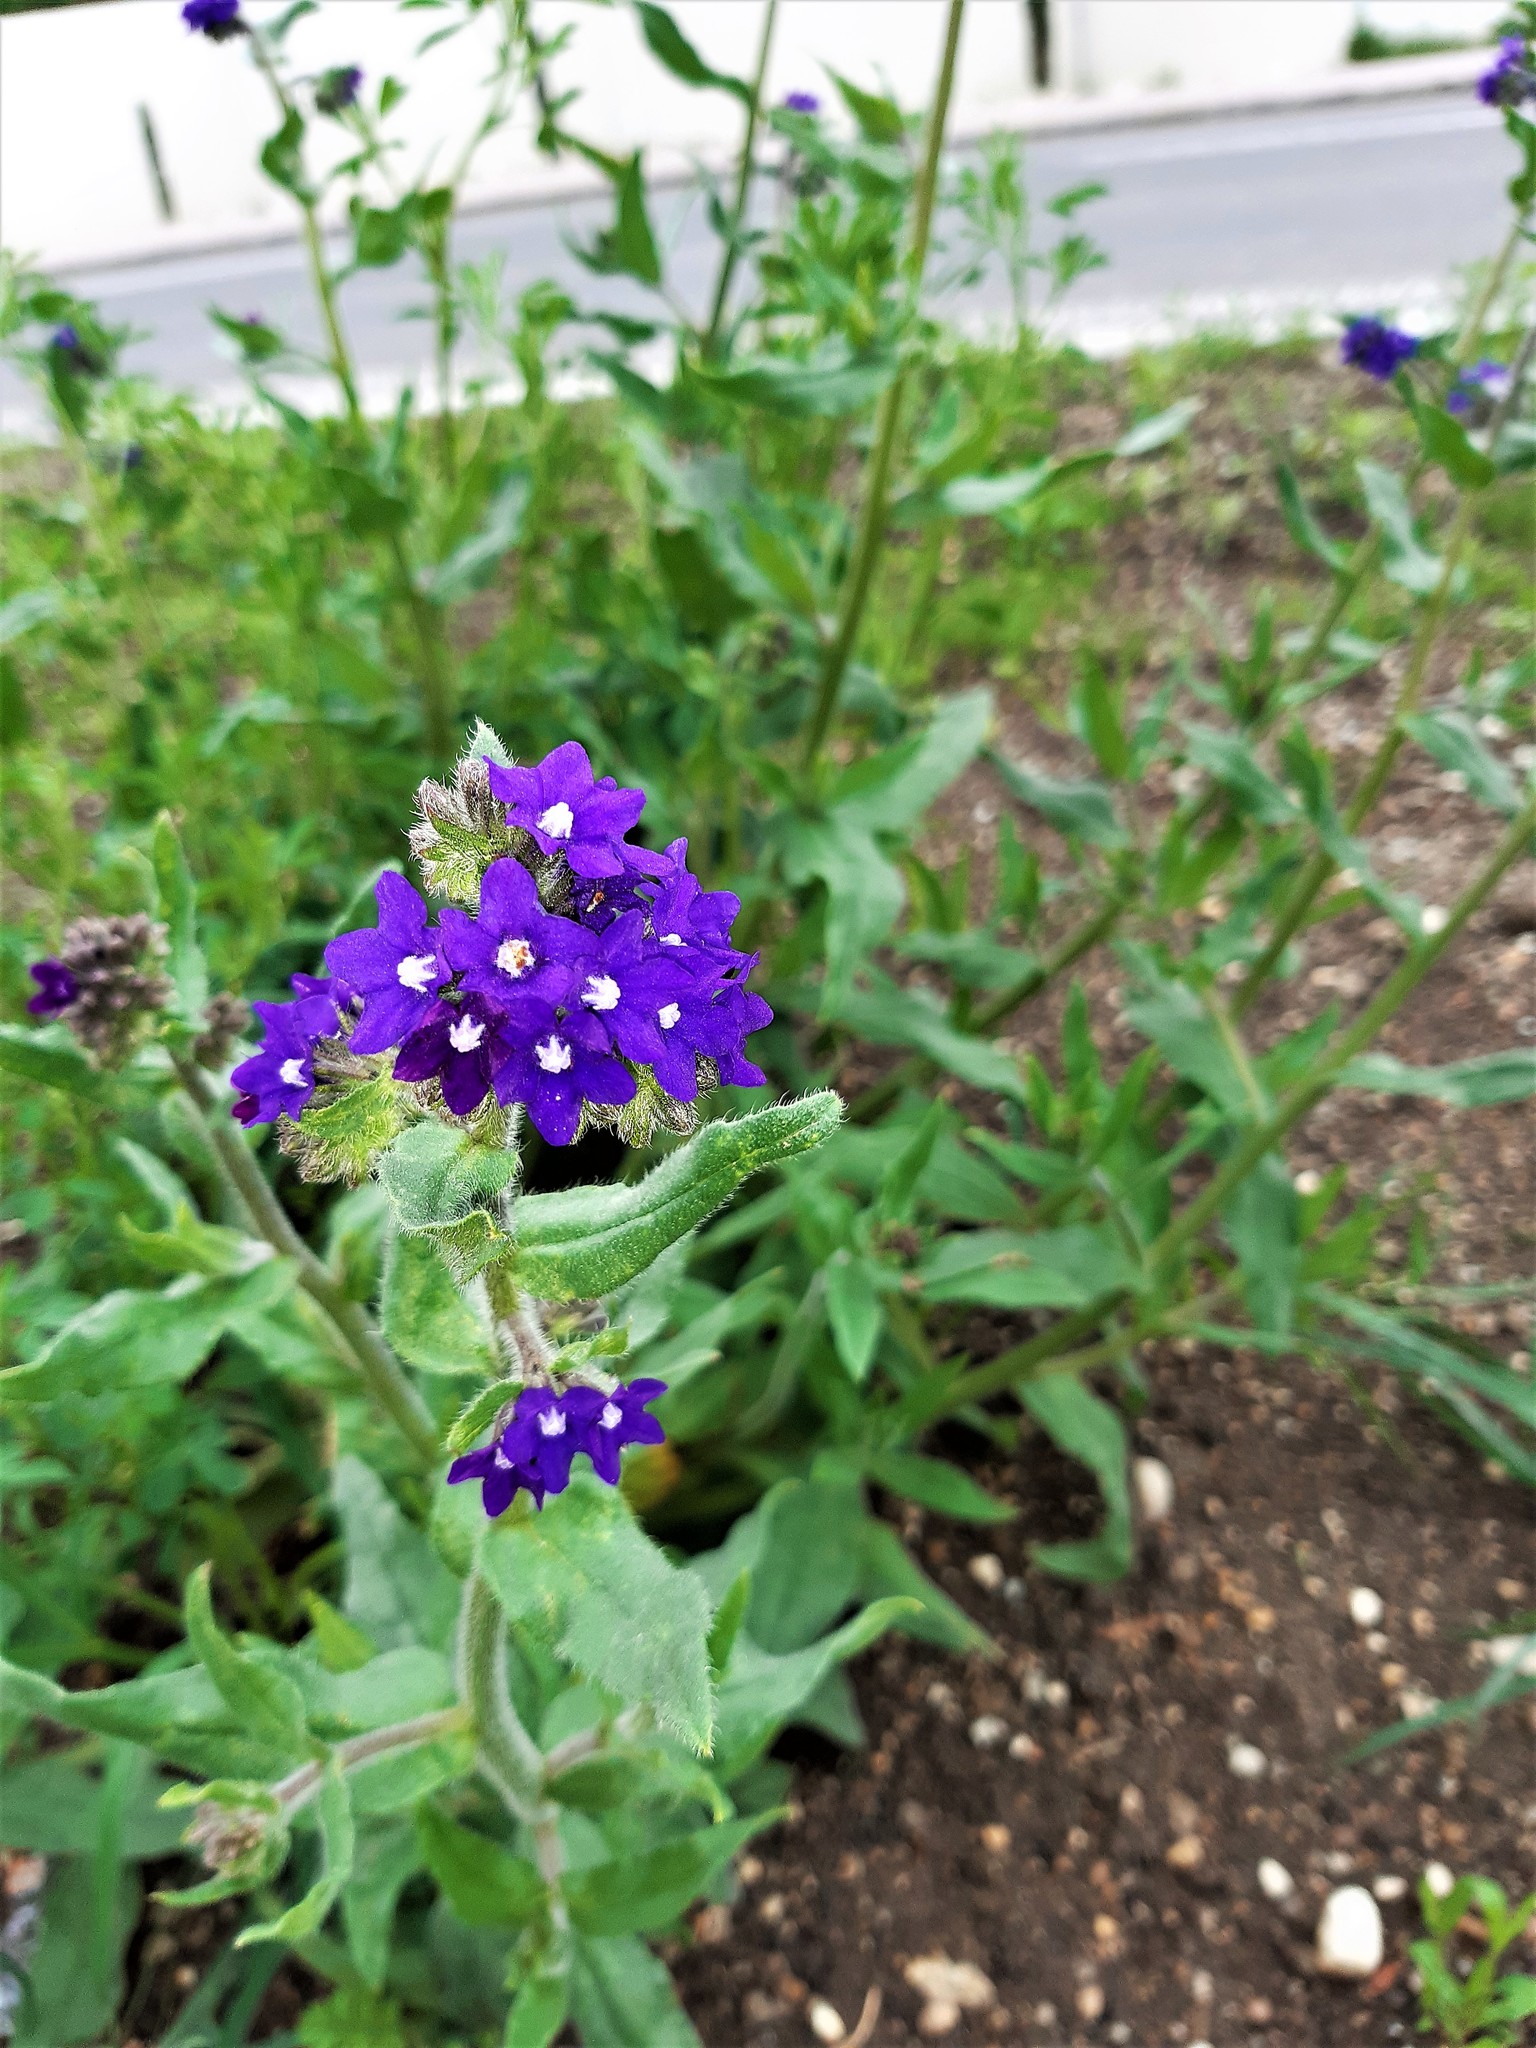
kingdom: Plantae
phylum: Tracheophyta
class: Magnoliopsida
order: Boraginales
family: Boraginaceae
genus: Anchusa
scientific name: Anchusa officinalis
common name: Alkanet
